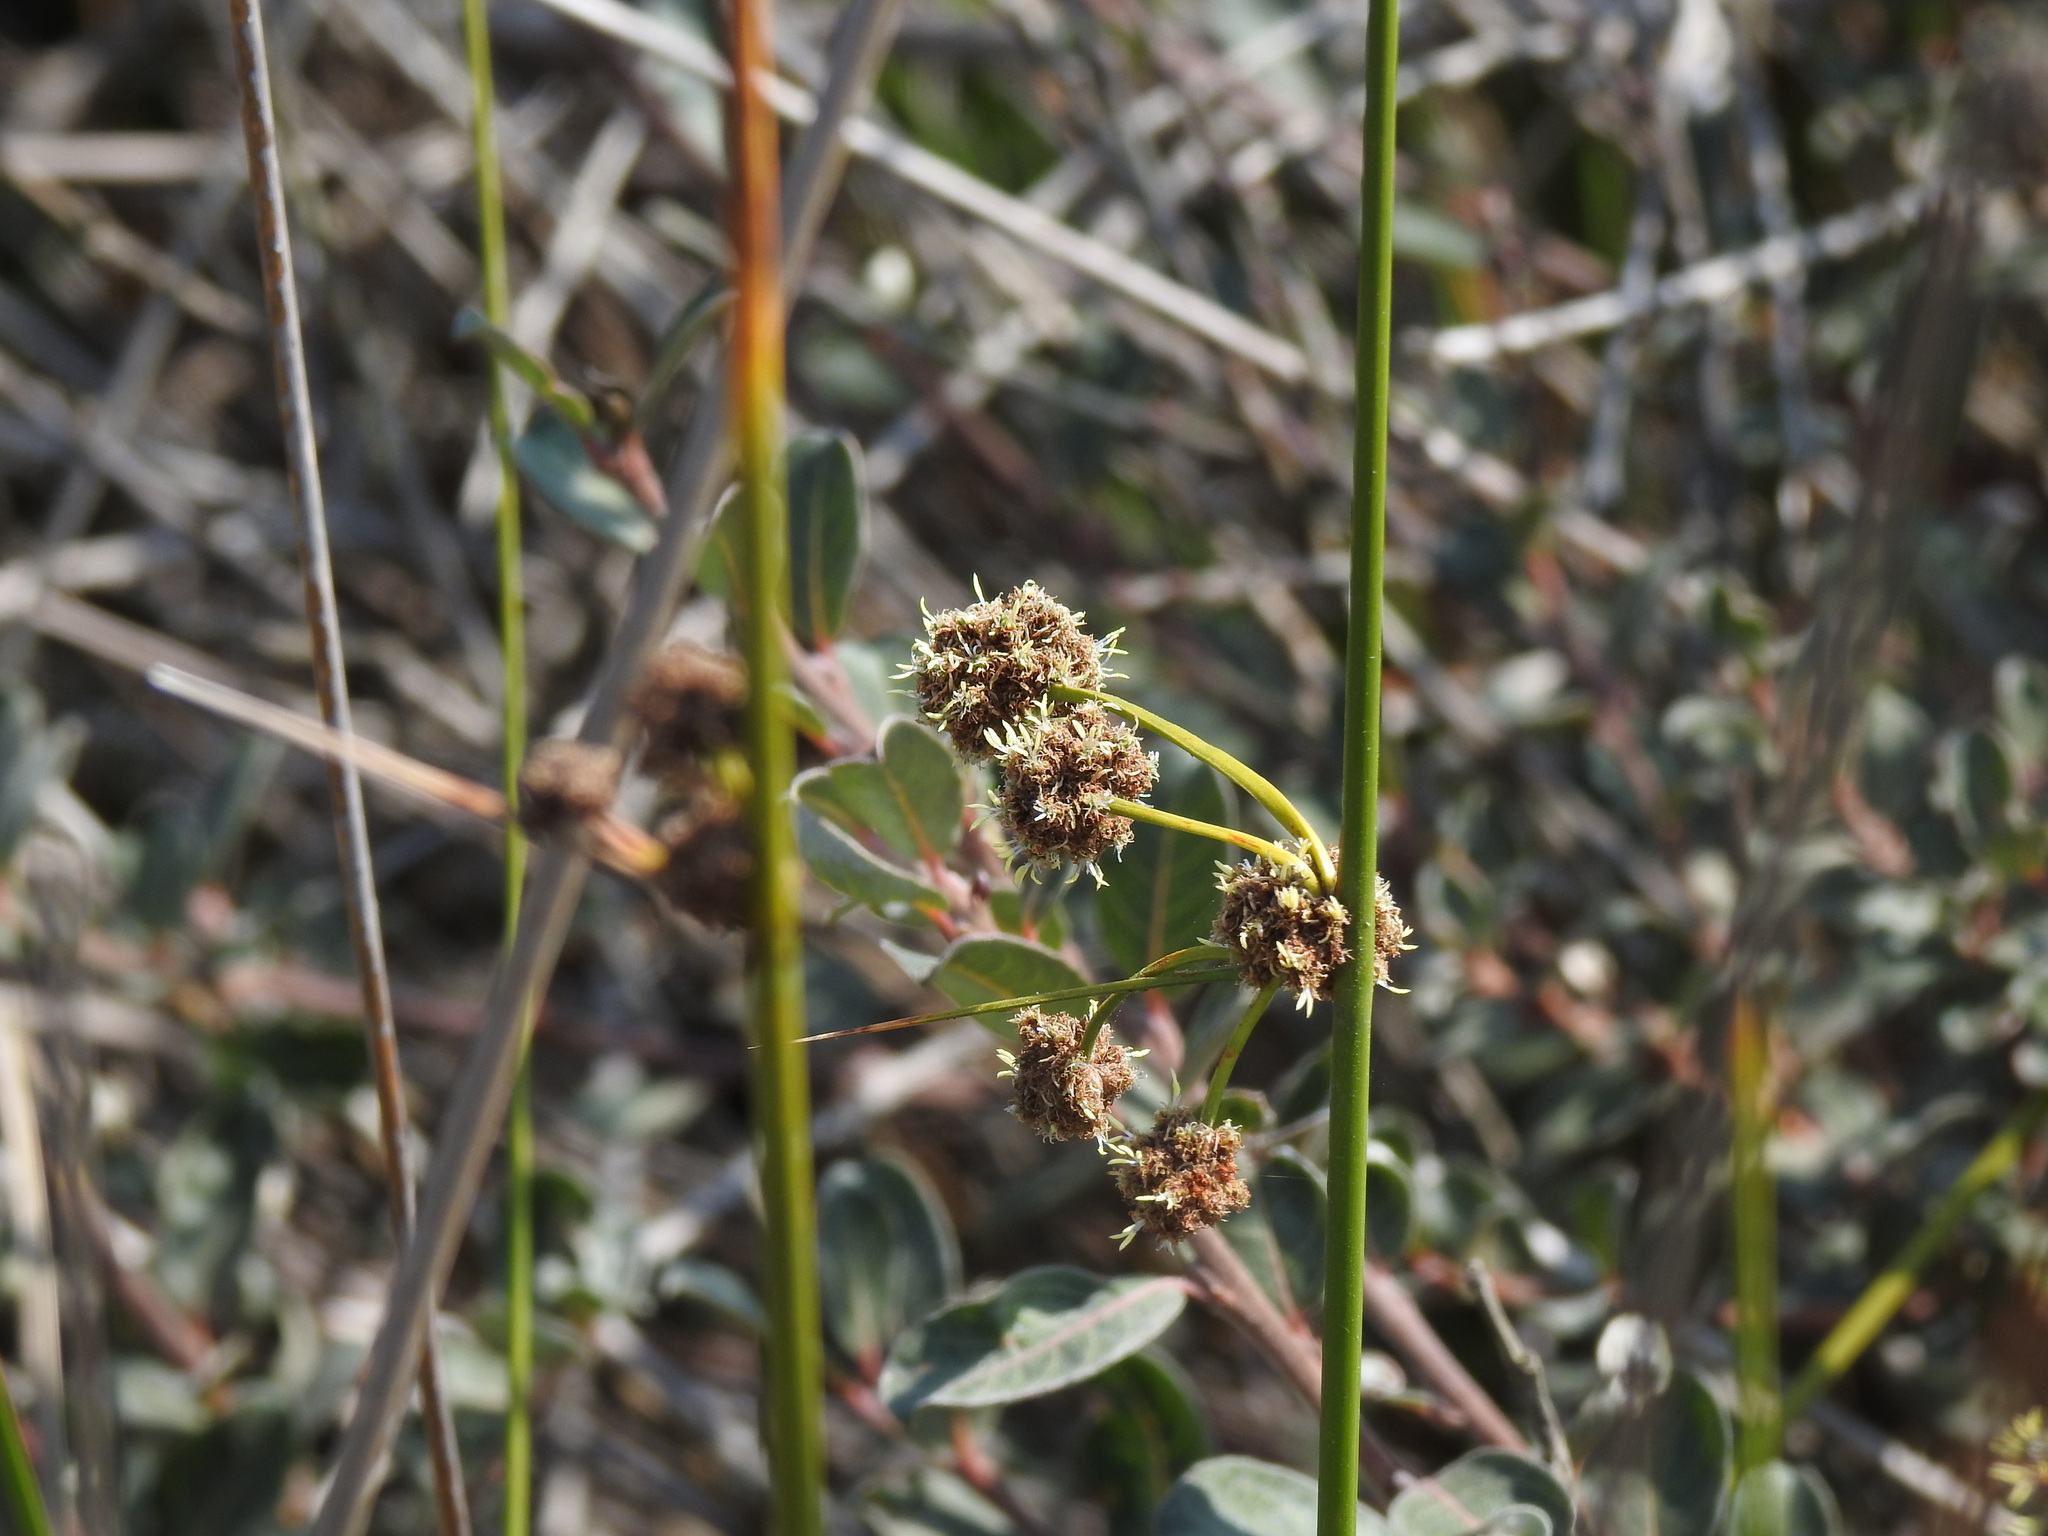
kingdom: Plantae
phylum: Tracheophyta
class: Liliopsida
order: Poales
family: Cyperaceae
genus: Scirpoides
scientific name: Scirpoides holoschoenus
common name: Round-headed club-rush
